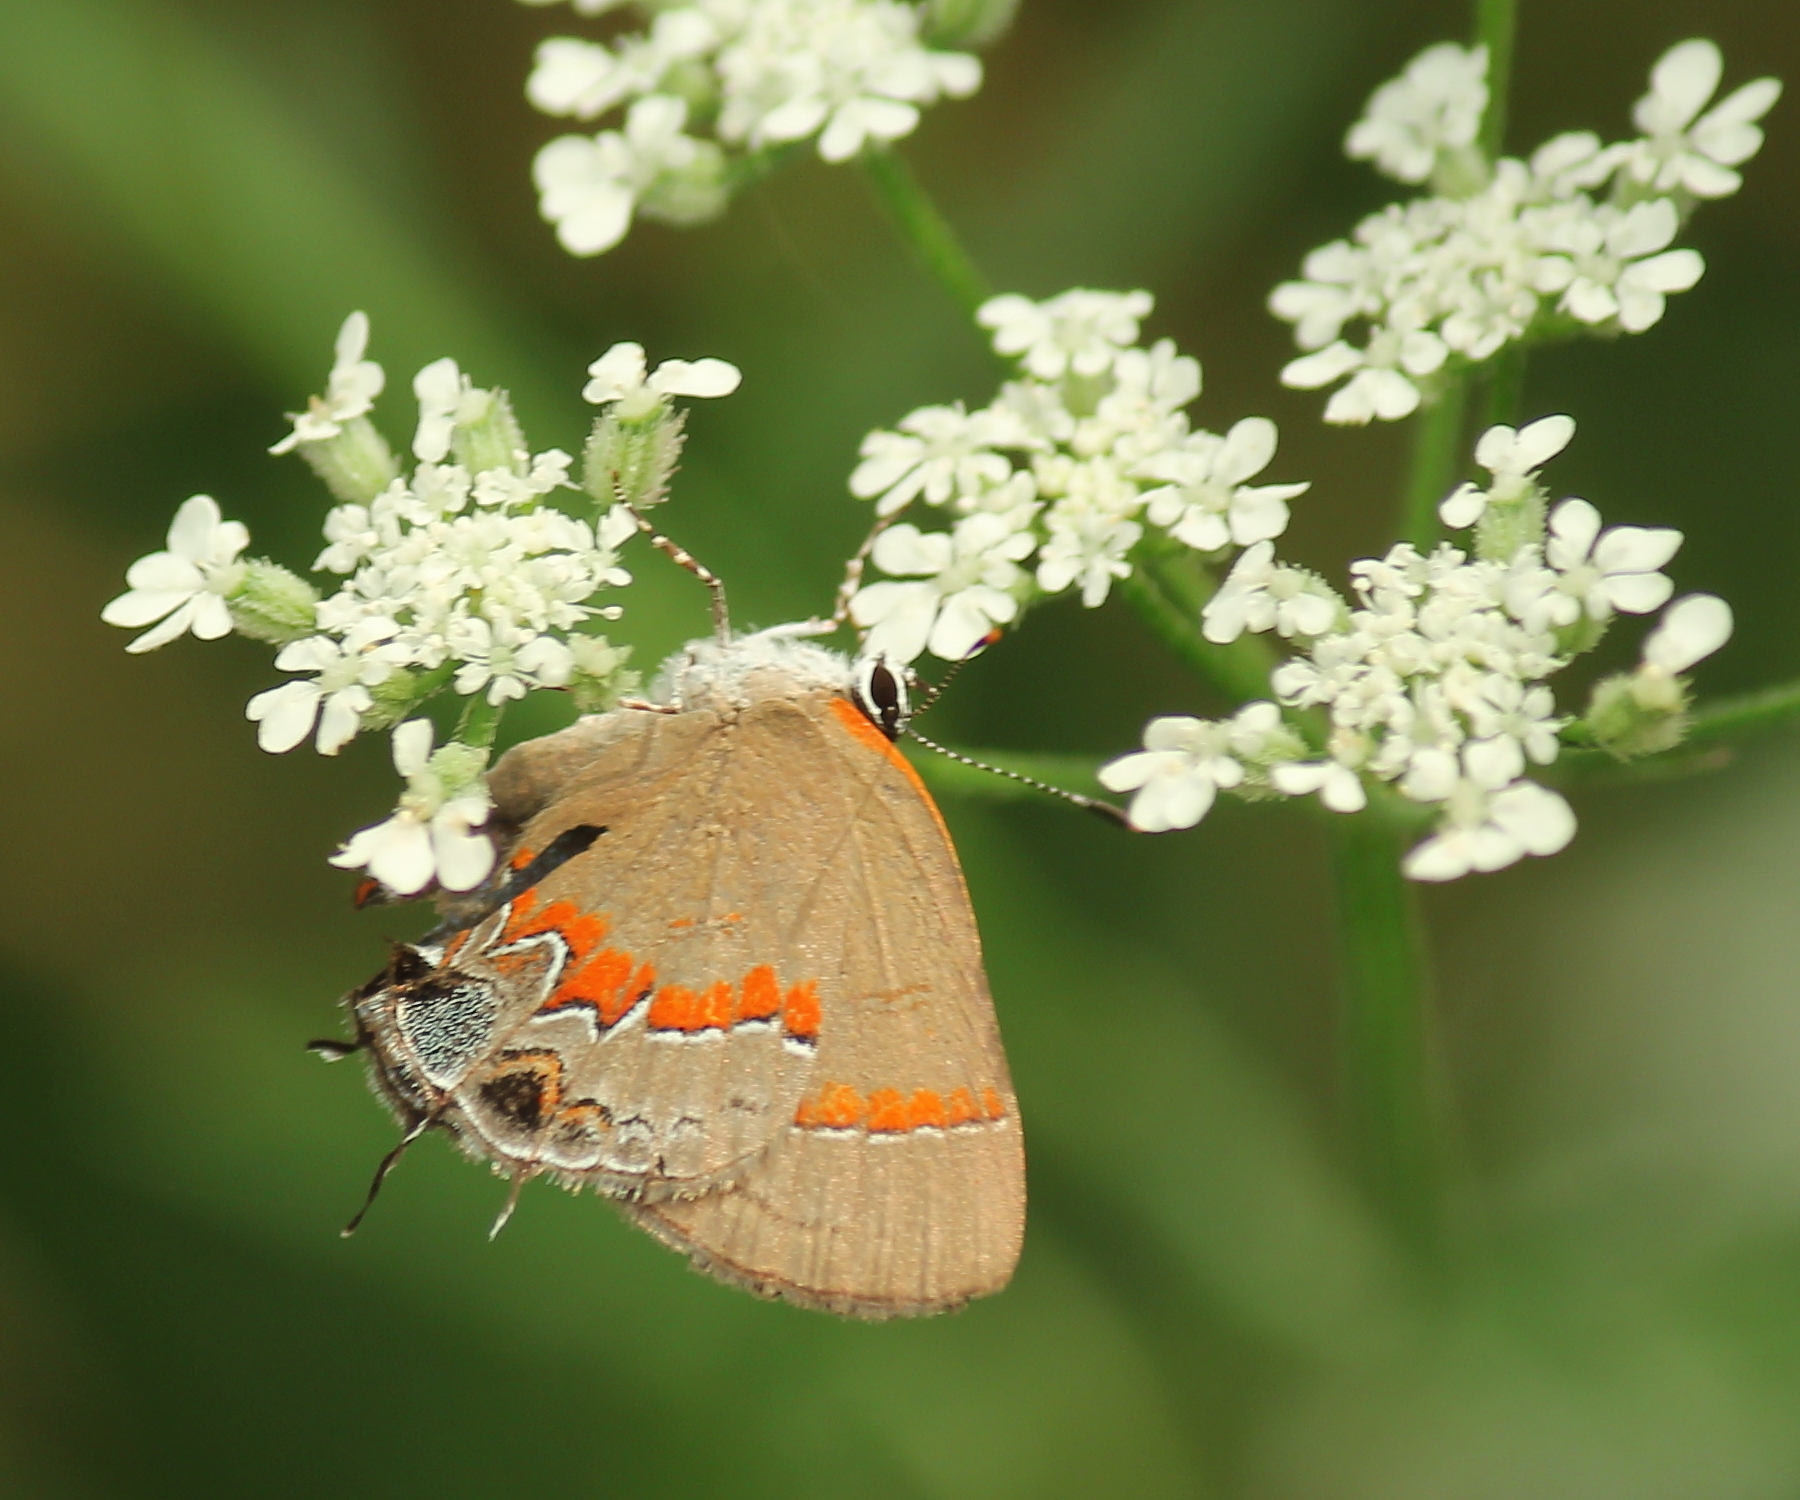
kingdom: Animalia
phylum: Arthropoda
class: Insecta
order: Lepidoptera
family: Lycaenidae
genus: Calycopis
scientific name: Calycopis cecrops
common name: Red-banded hairstreak
